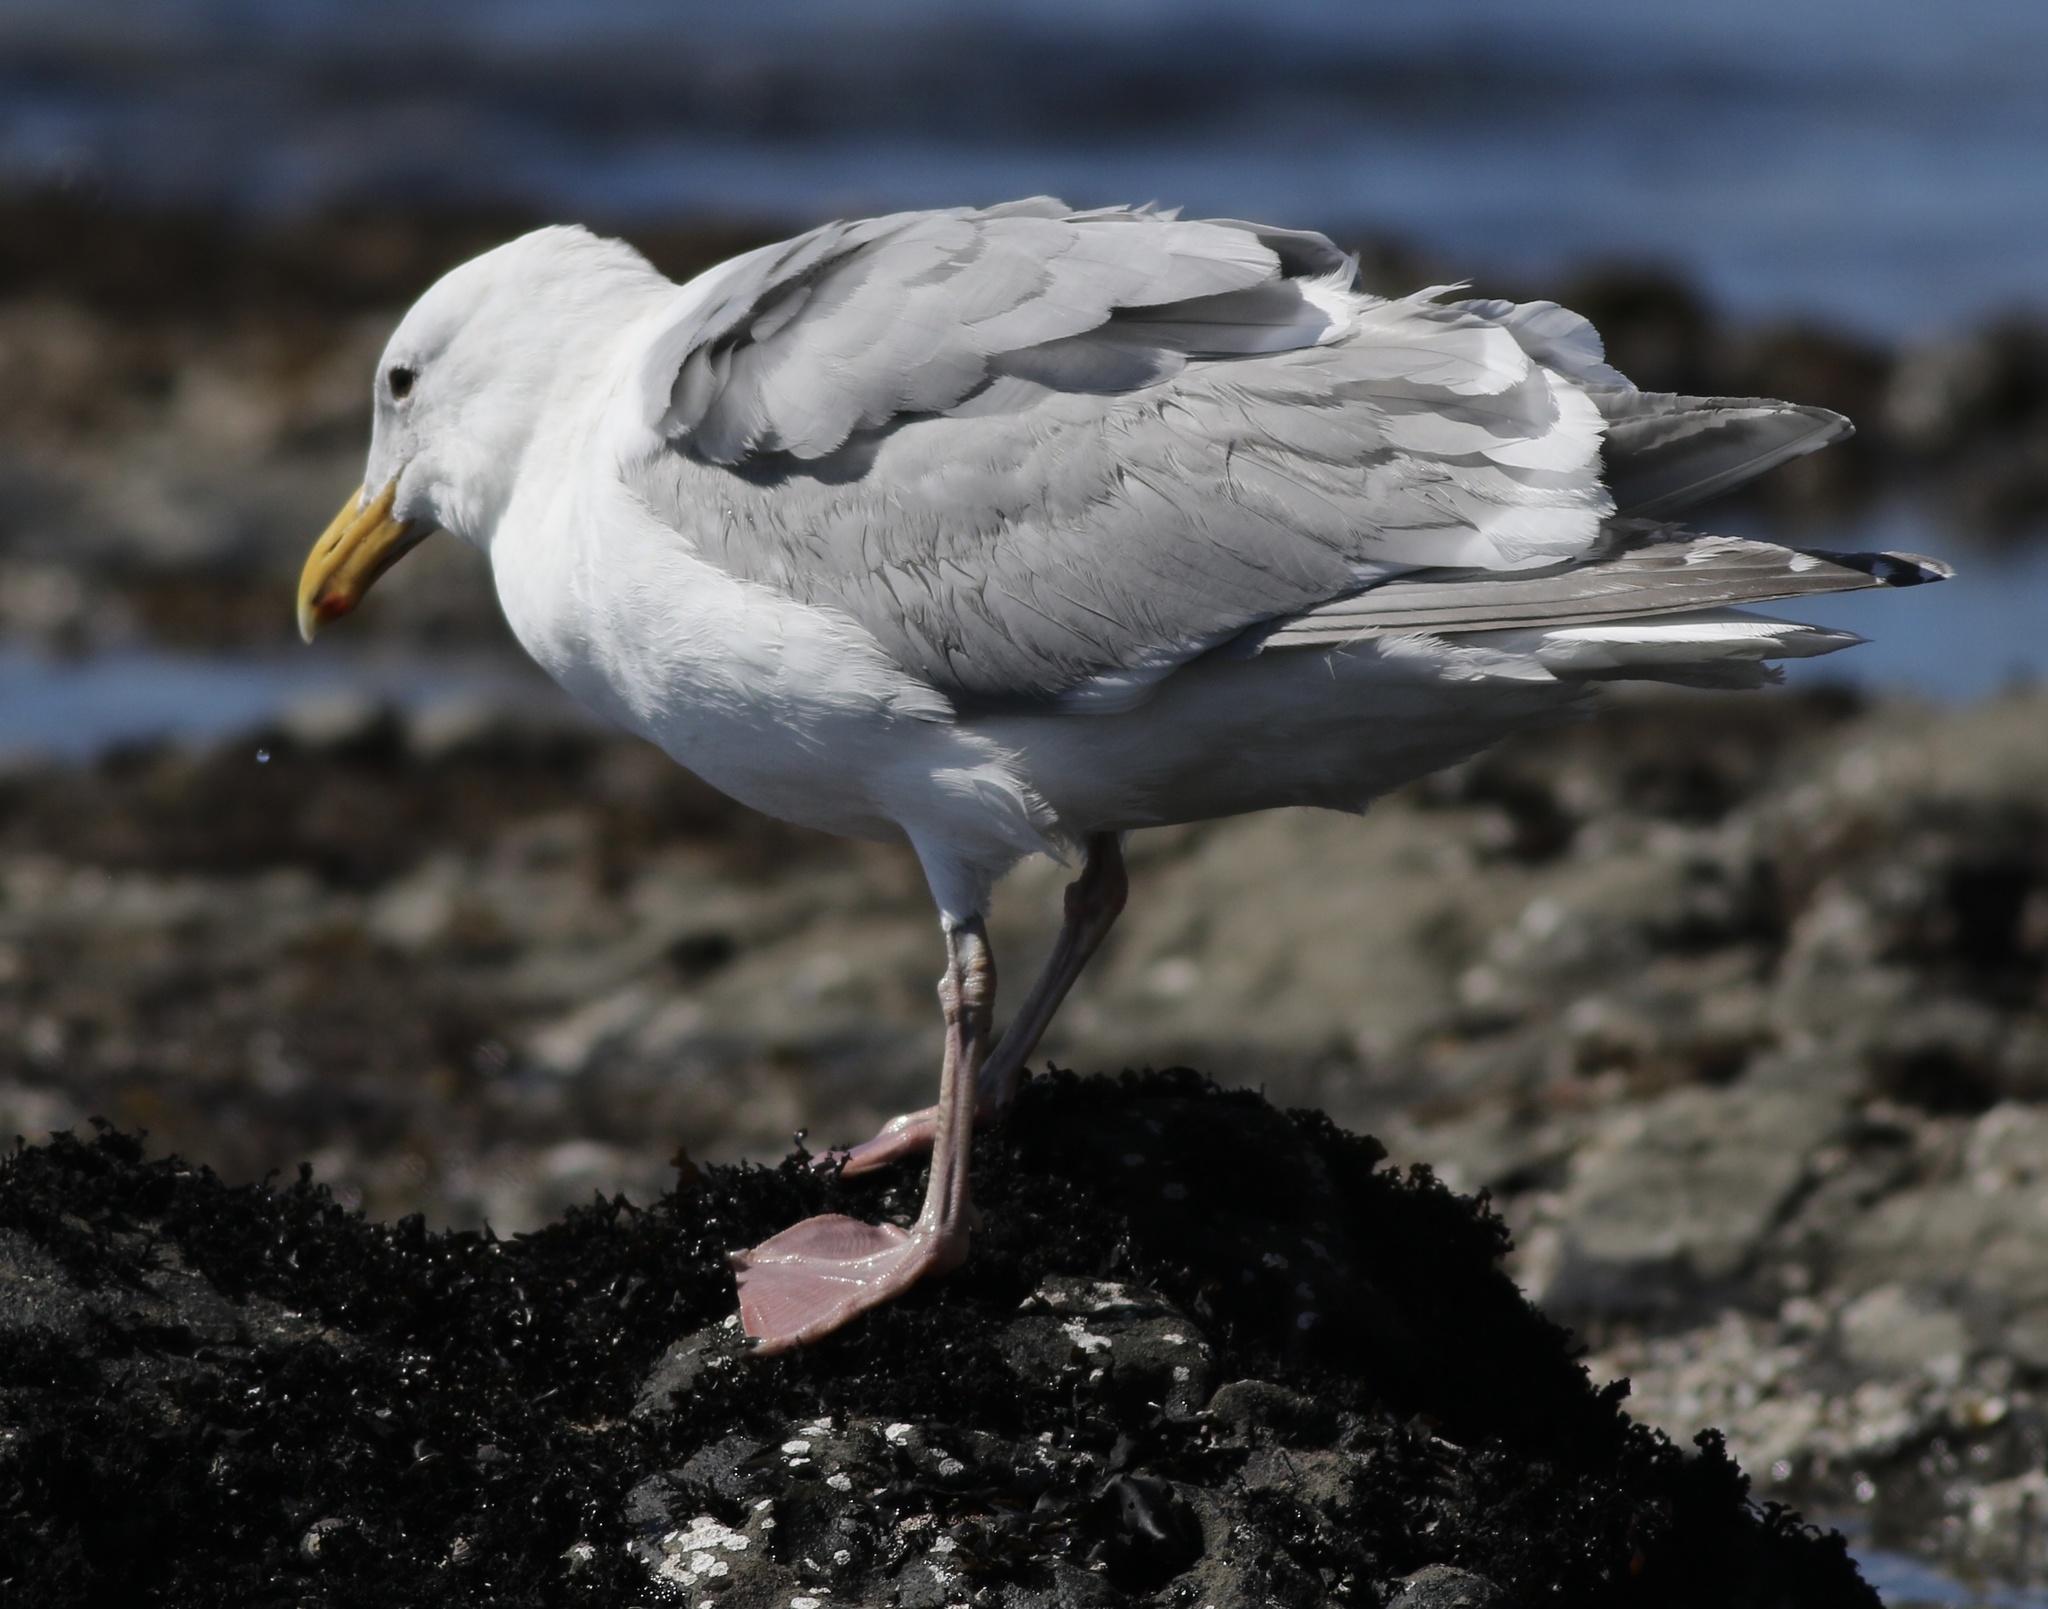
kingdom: Animalia
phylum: Chordata
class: Aves
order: Charadriiformes
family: Laridae
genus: Larus
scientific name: Larus glaucescens
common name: Glaucous-winged gull
